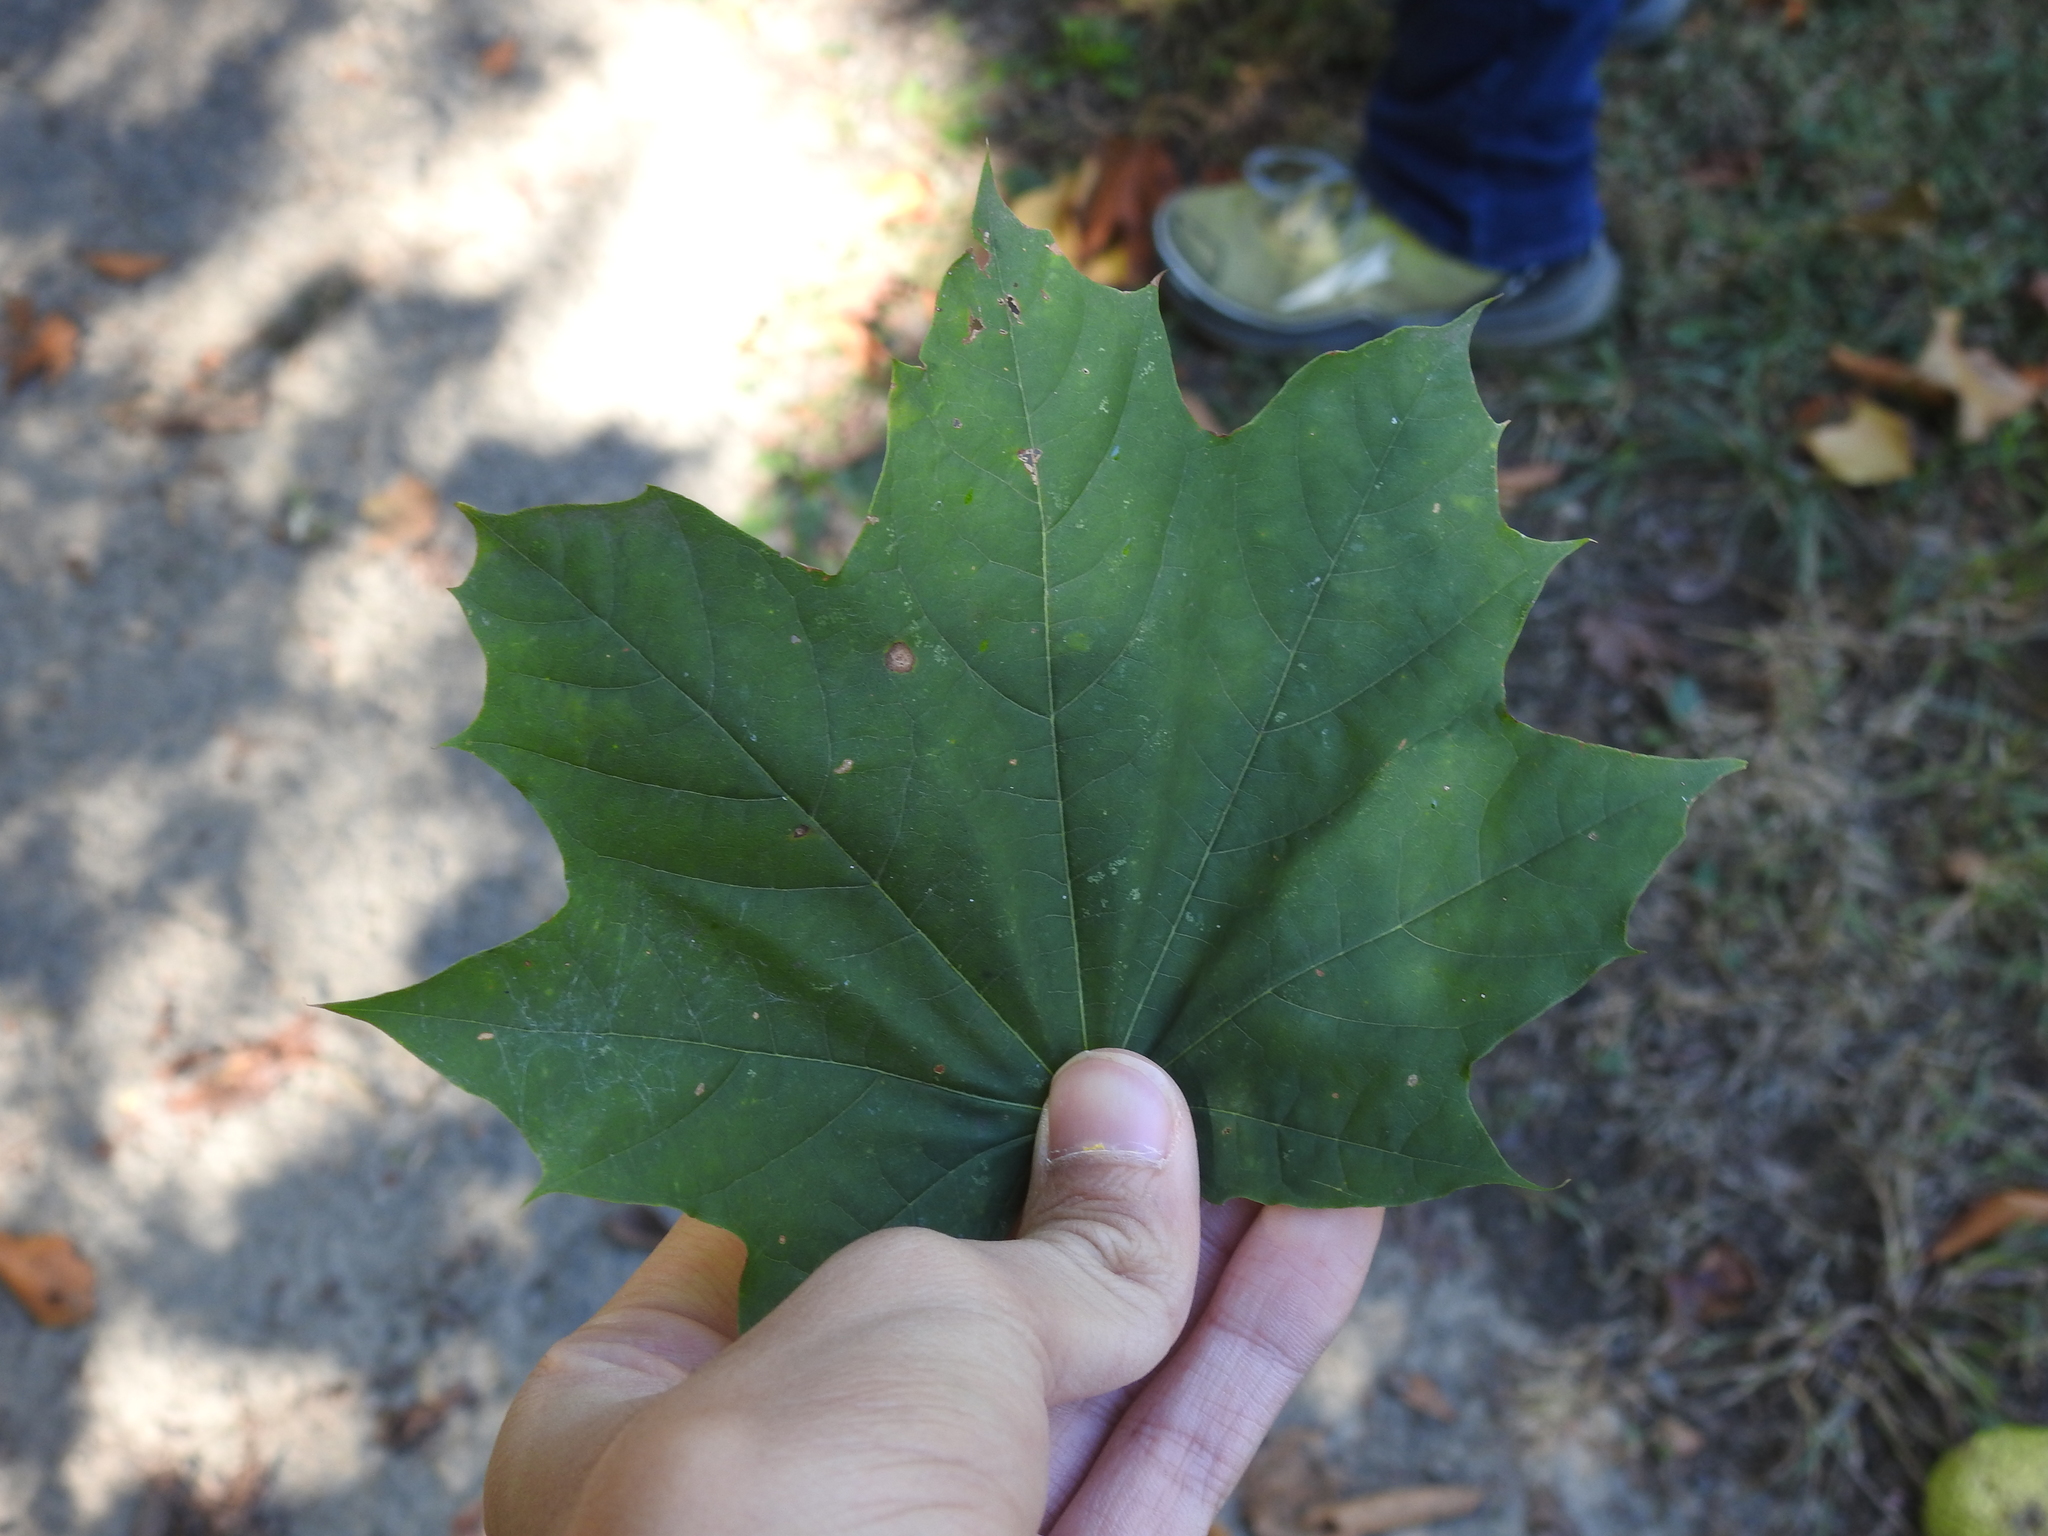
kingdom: Plantae
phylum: Tracheophyta
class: Magnoliopsida
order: Proteales
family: Platanaceae
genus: Platanus
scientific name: Platanus occidentalis
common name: American sycamore
